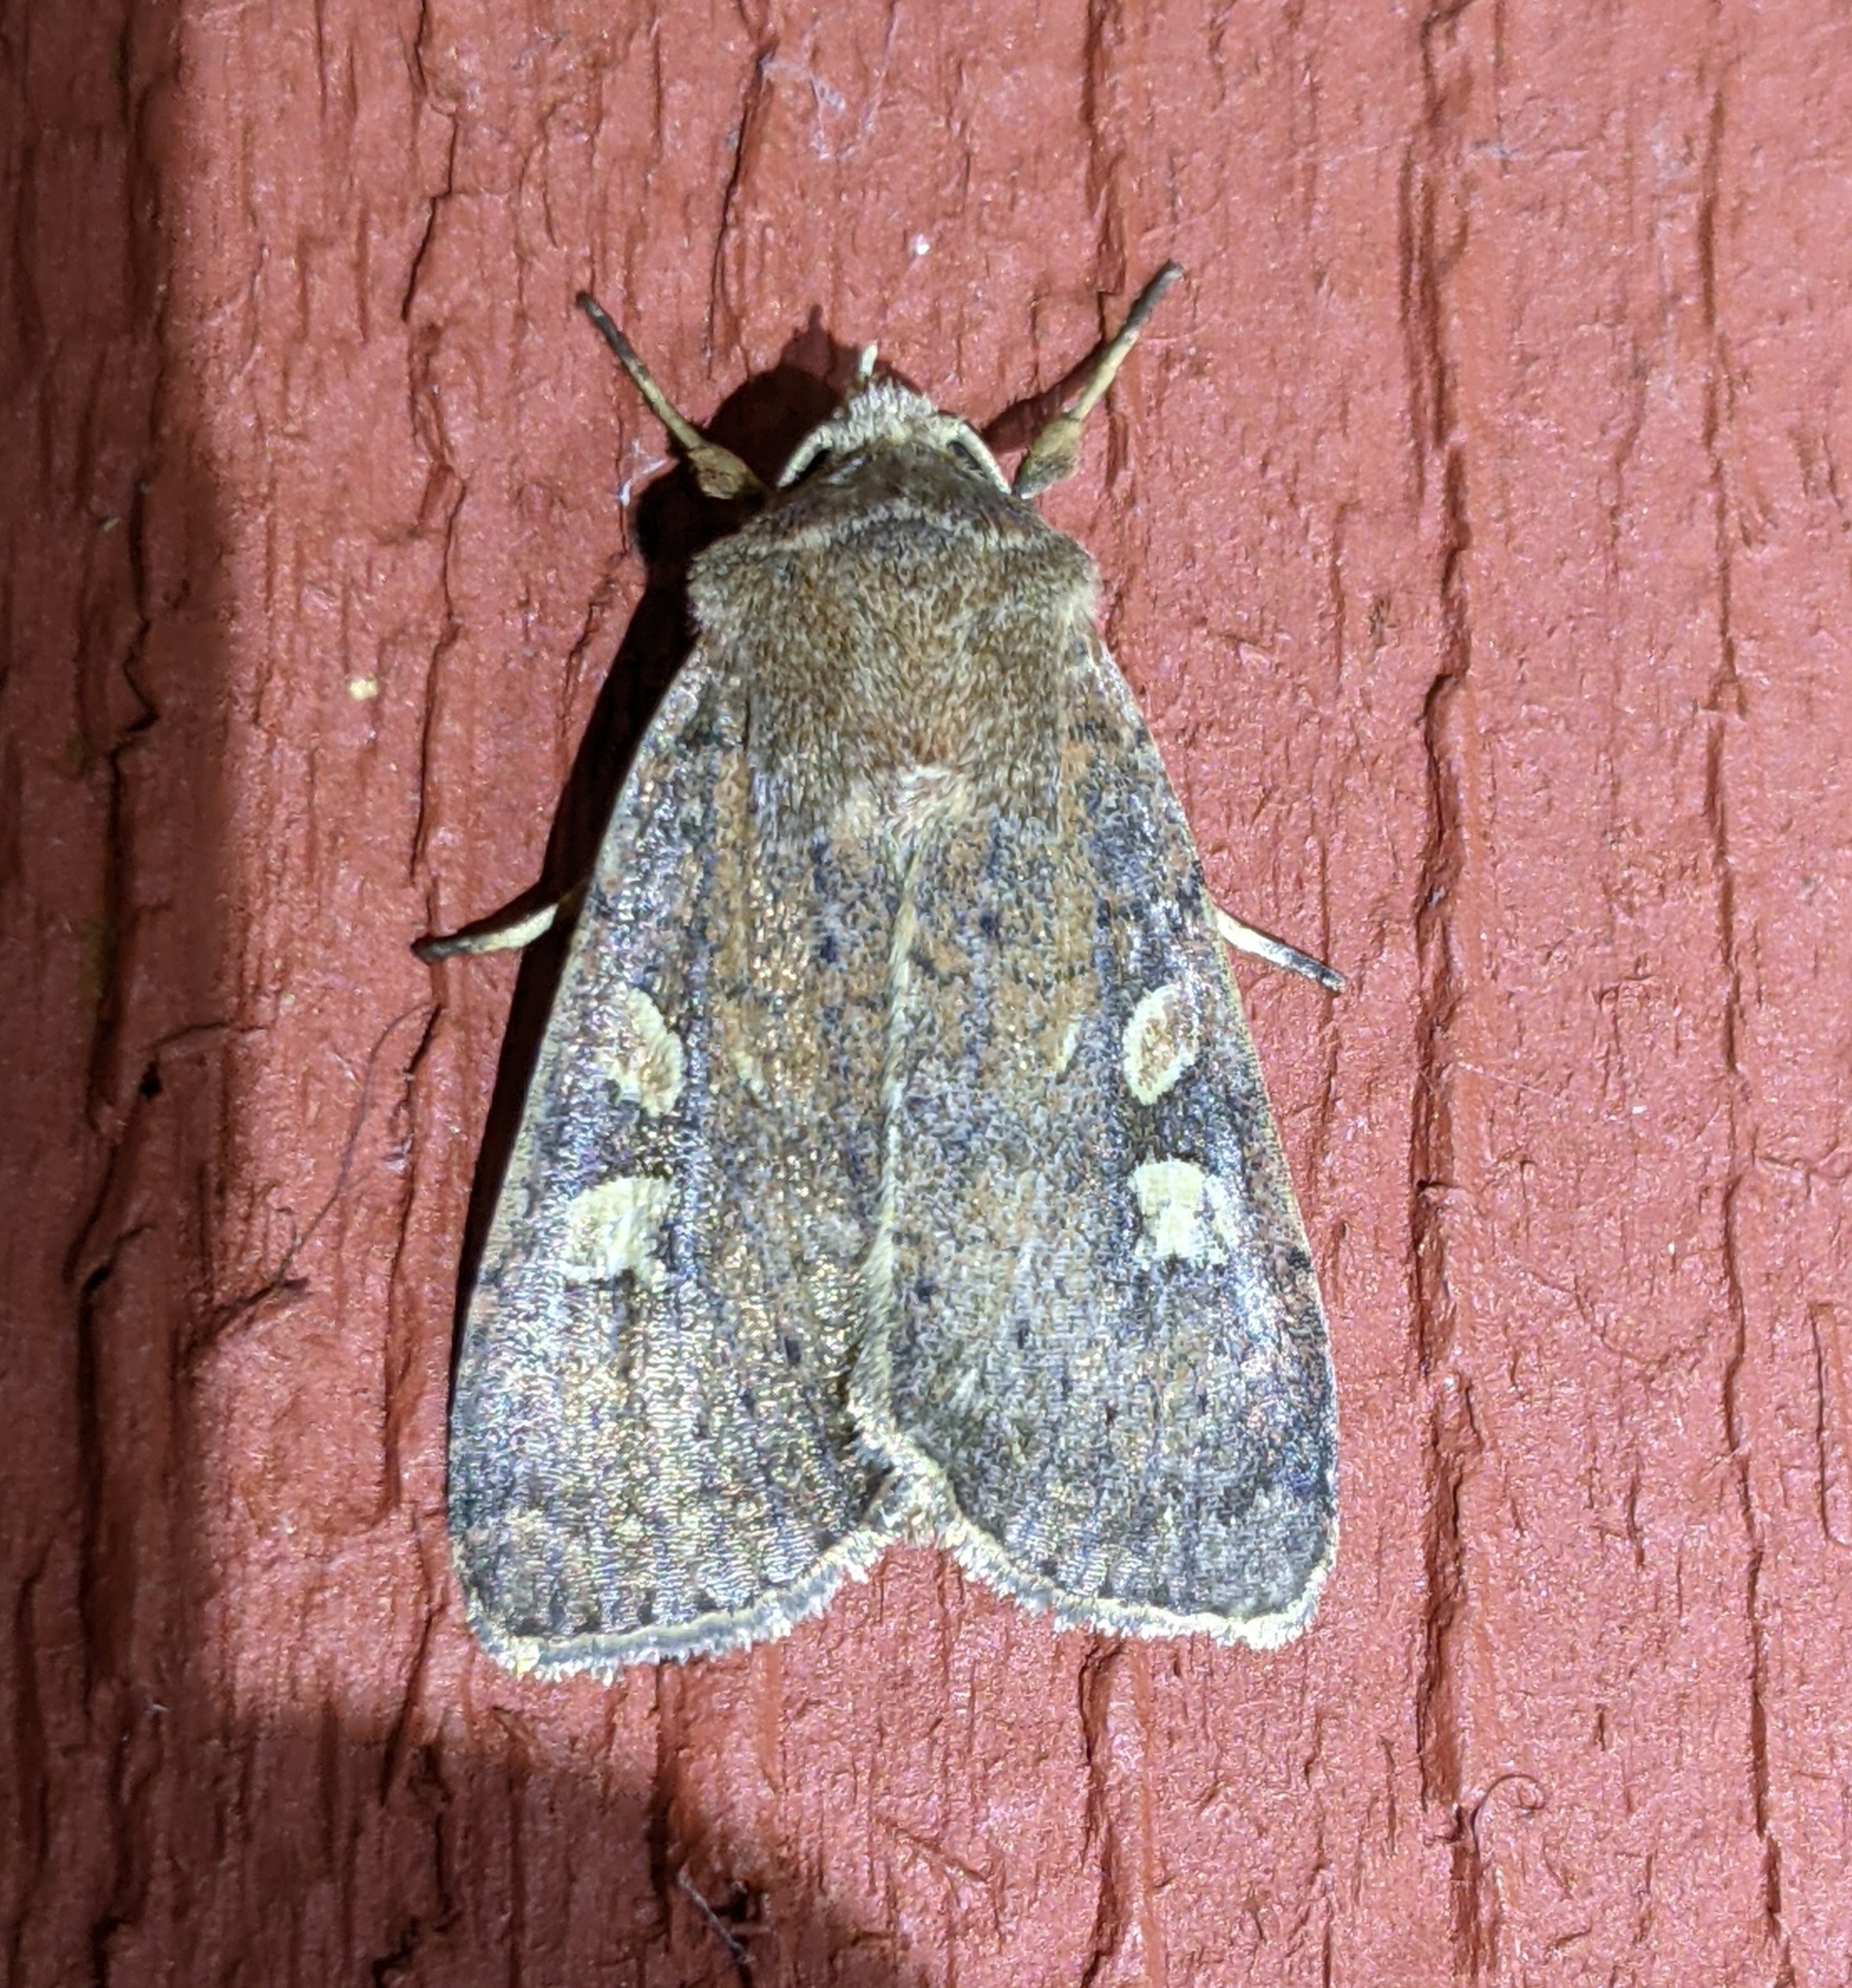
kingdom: Animalia
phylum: Arthropoda
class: Insecta
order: Lepidoptera
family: Noctuidae
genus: Xestia
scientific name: Xestia xanthographa
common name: Square-spot rustic
